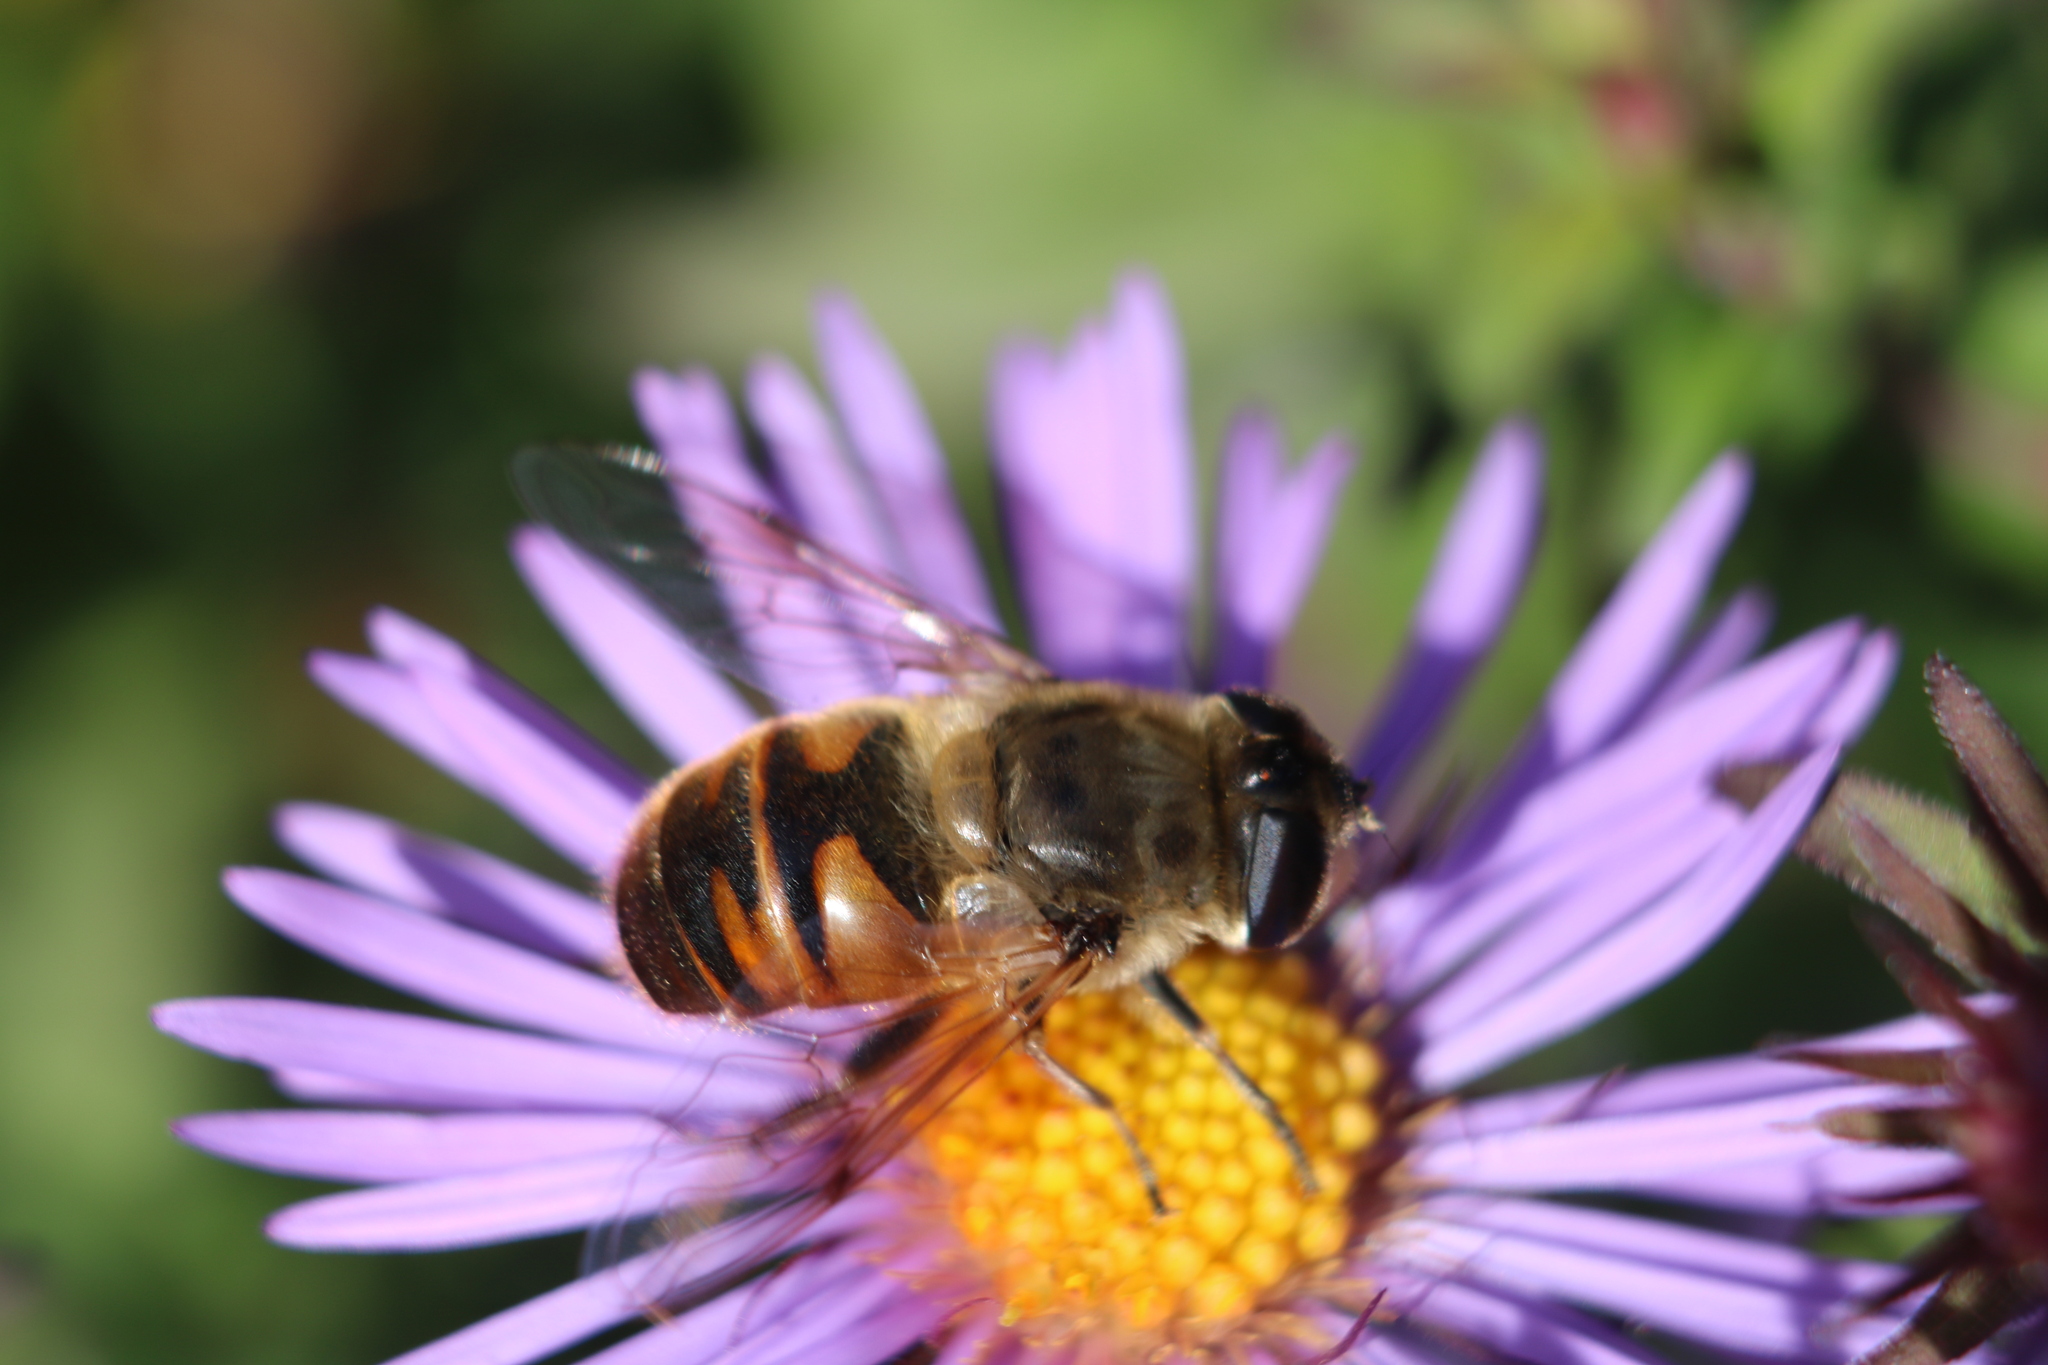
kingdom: Animalia
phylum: Arthropoda
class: Insecta
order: Diptera
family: Syrphidae
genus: Eristalis
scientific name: Eristalis tenax
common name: Drone fly
